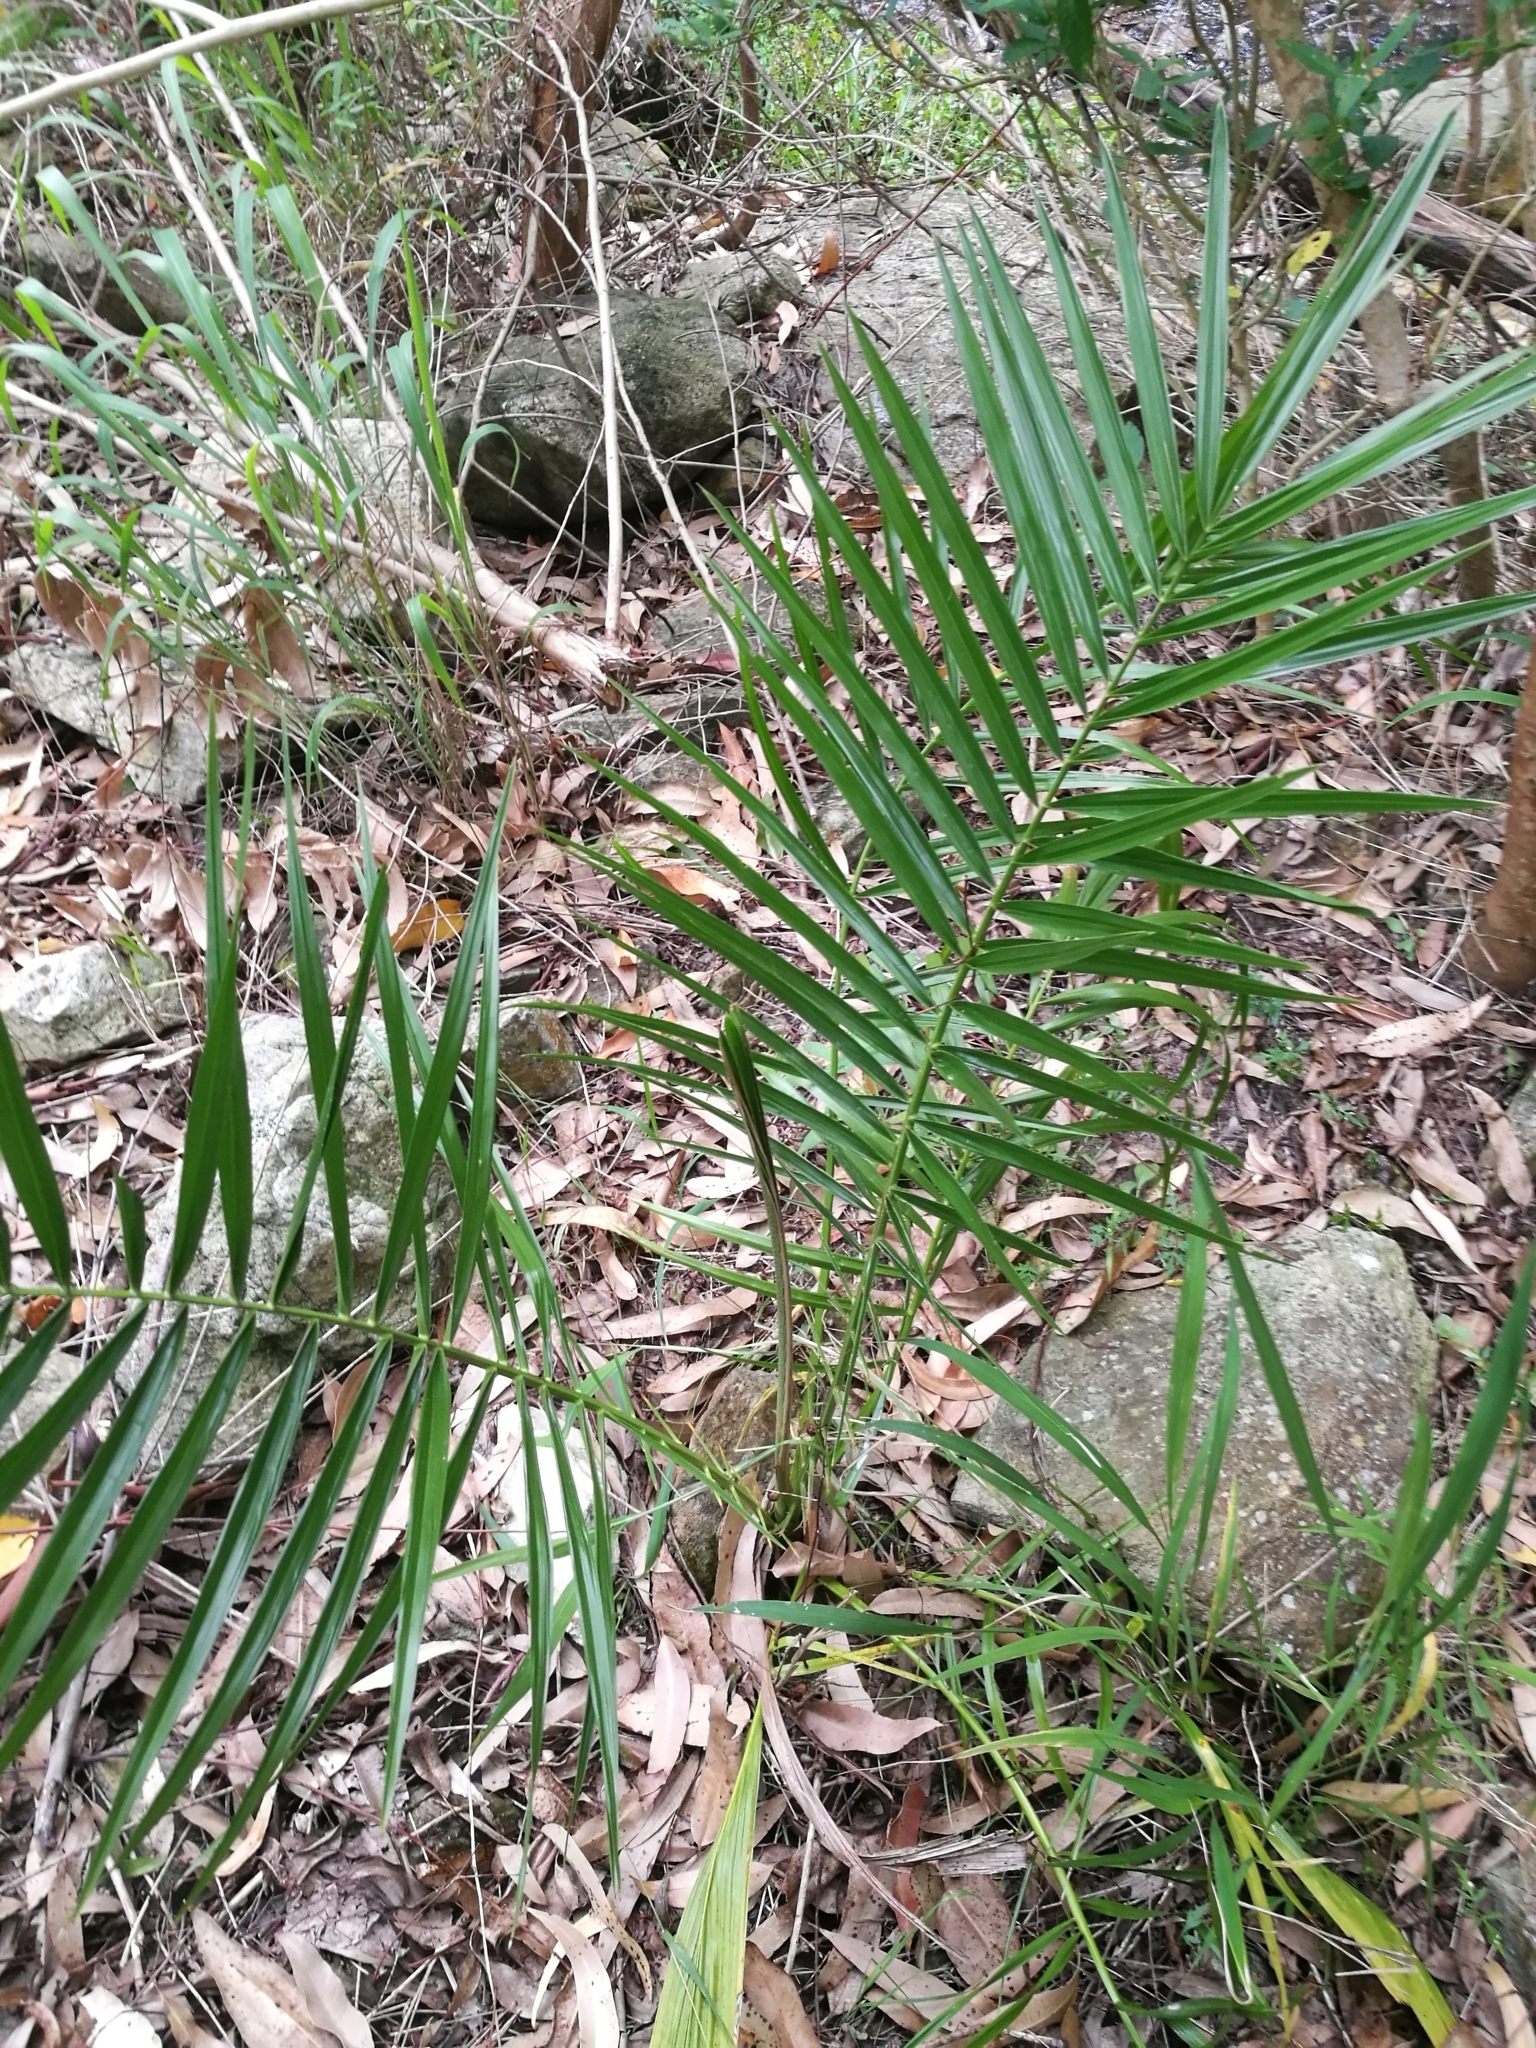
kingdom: Plantae
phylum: Tracheophyta
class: Liliopsida
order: Arecales
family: Arecaceae
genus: Phoenix
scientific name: Phoenix reclinata
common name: Senegal date palm
